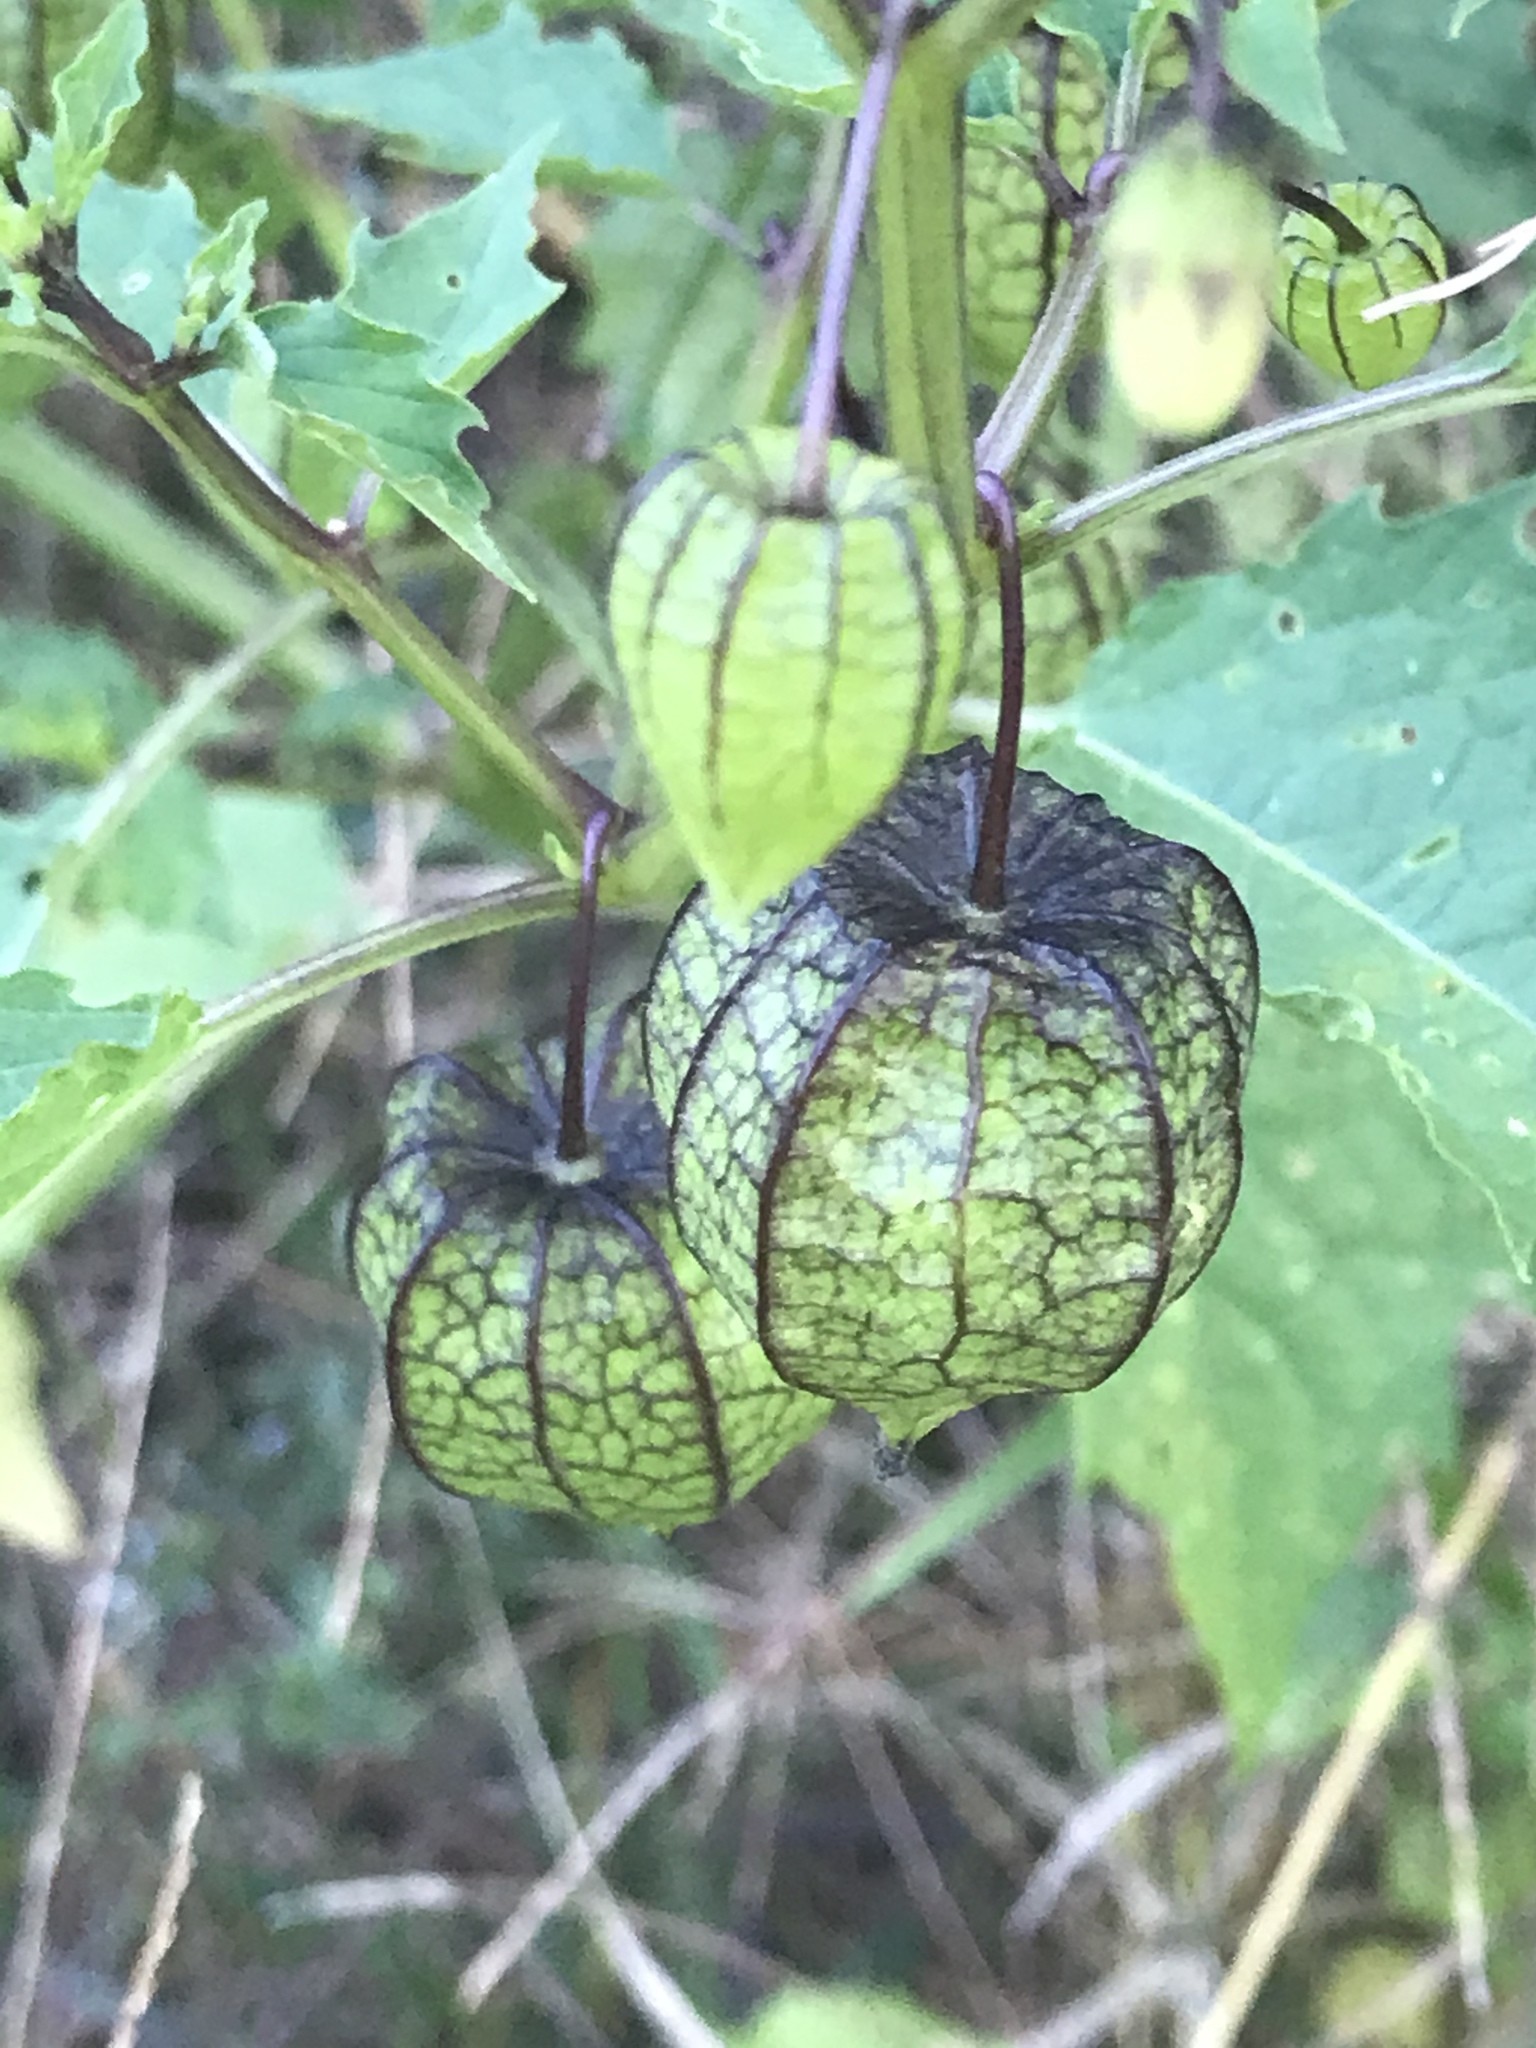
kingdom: Plantae
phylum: Tracheophyta
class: Magnoliopsida
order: Solanales
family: Solanaceae
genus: Physalis
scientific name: Physalis angulata
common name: Angular winter-cherry
